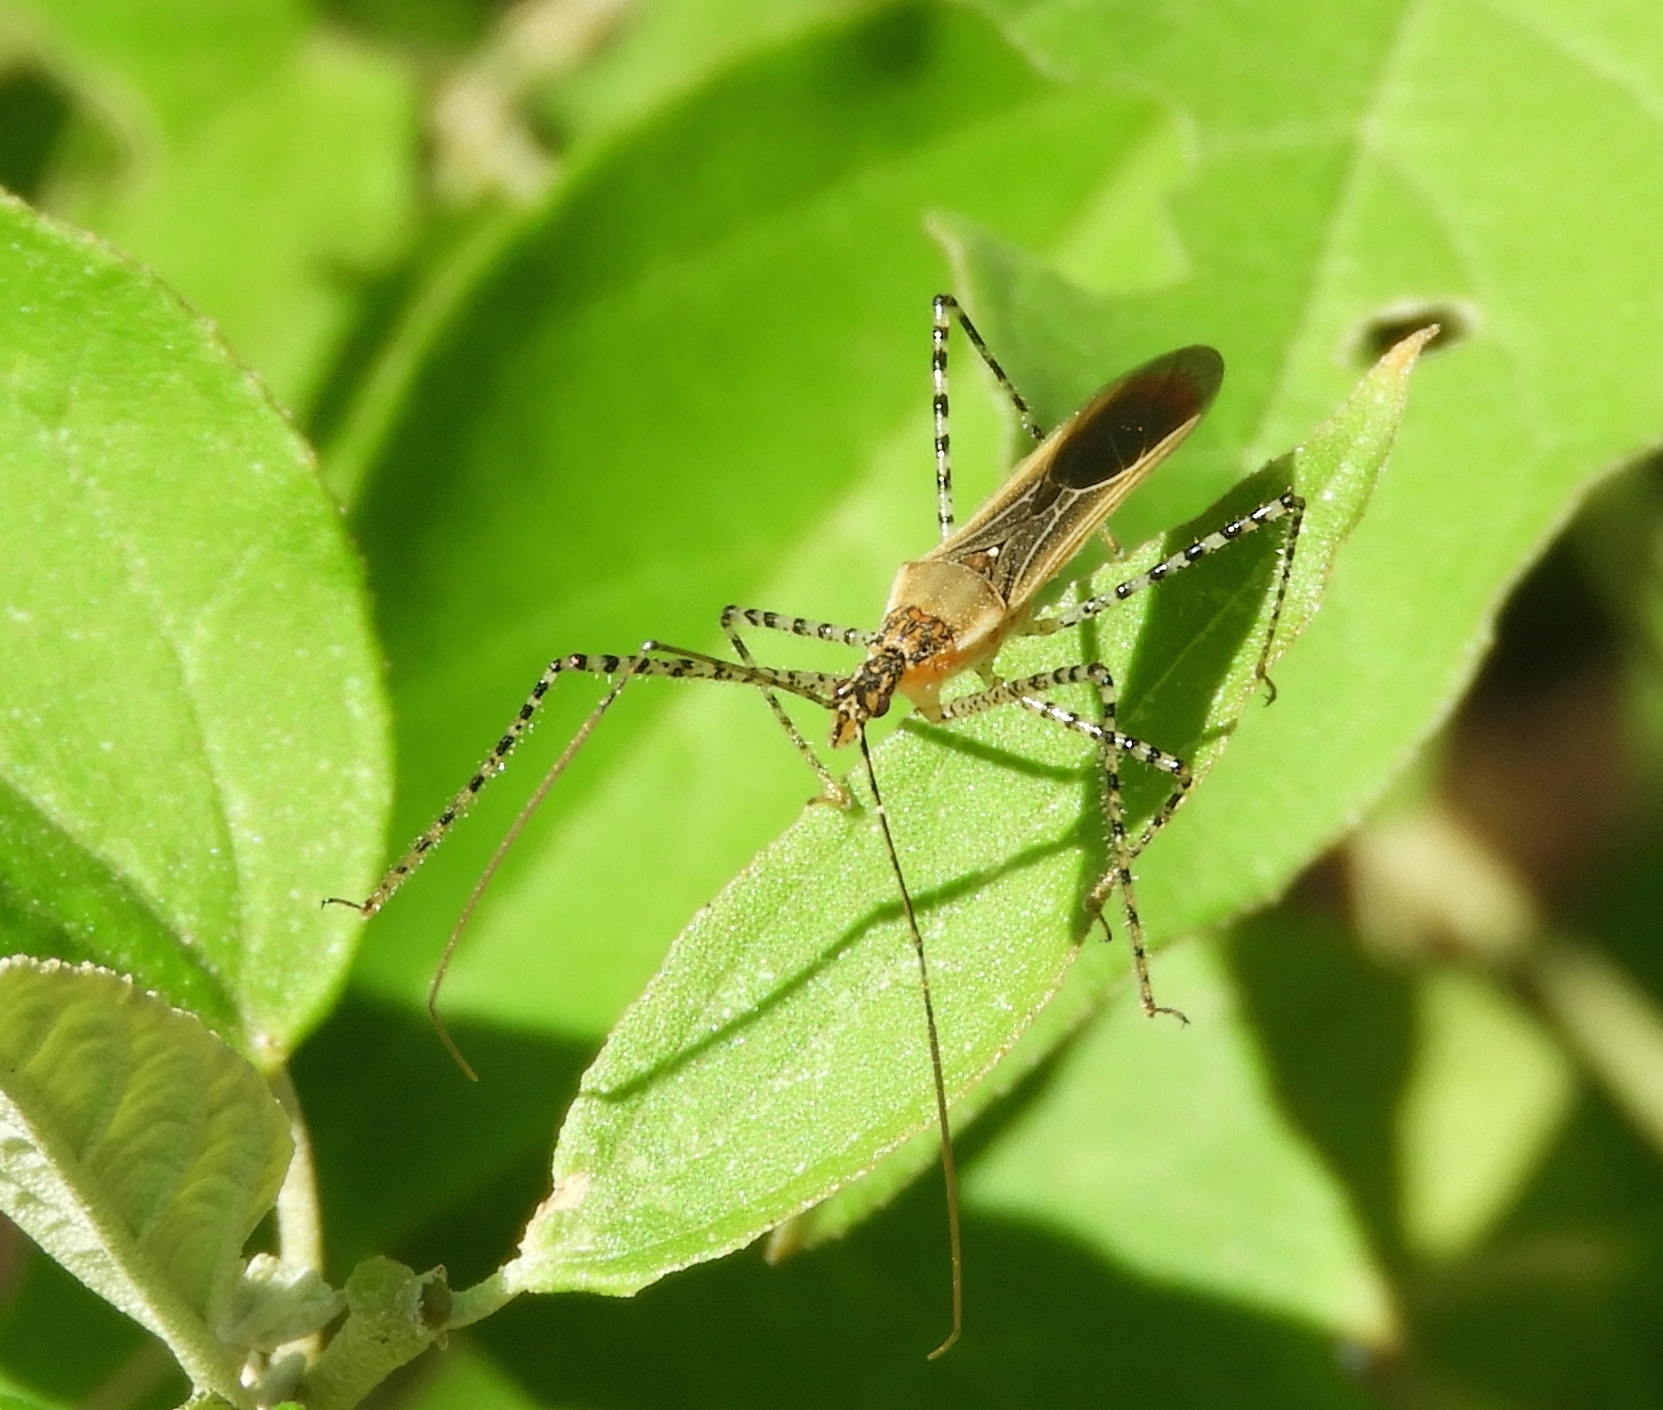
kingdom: Animalia
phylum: Arthropoda
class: Insecta
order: Hemiptera
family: Reduviidae
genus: Zelus
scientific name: Zelus cervicalis
